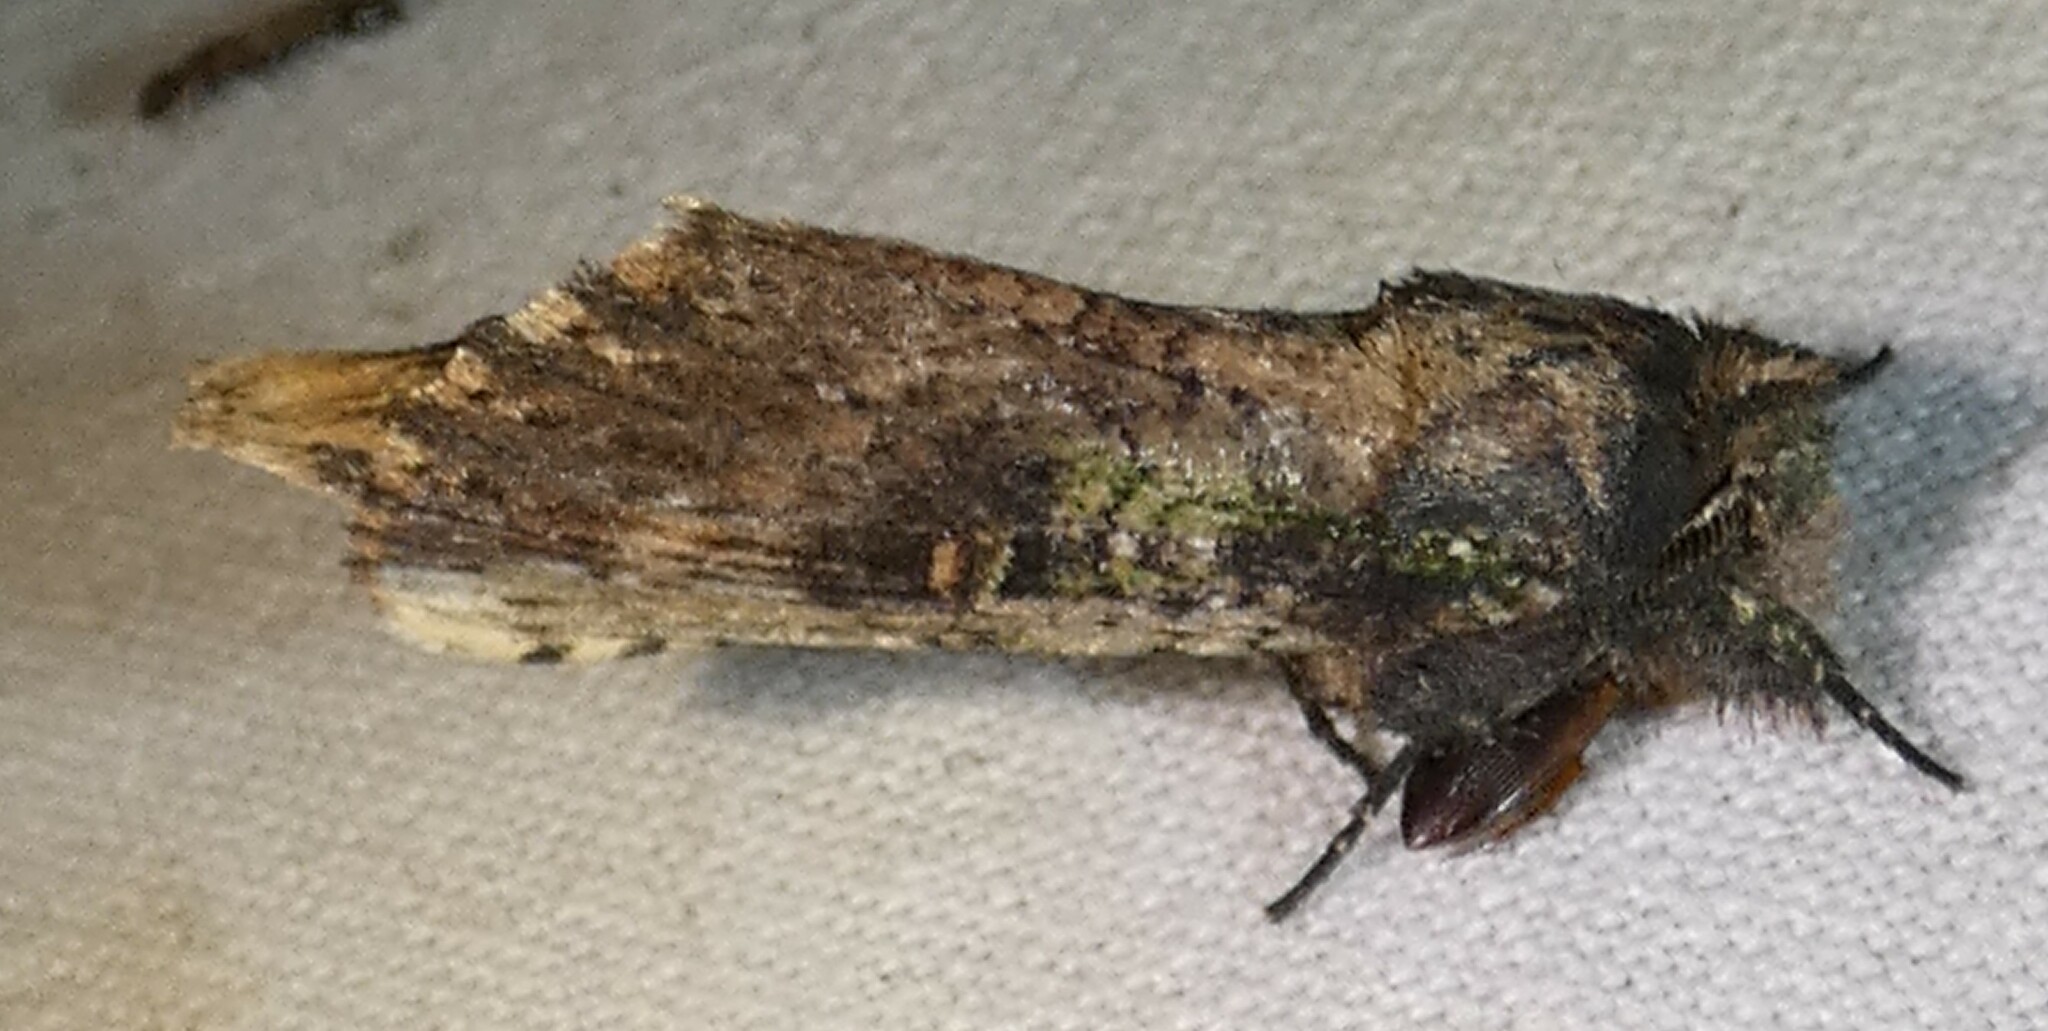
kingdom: Animalia
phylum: Arthropoda
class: Insecta
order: Lepidoptera
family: Notodontidae
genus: Schizura
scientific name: Schizura ipomaeae
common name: Morning-glory prominent
